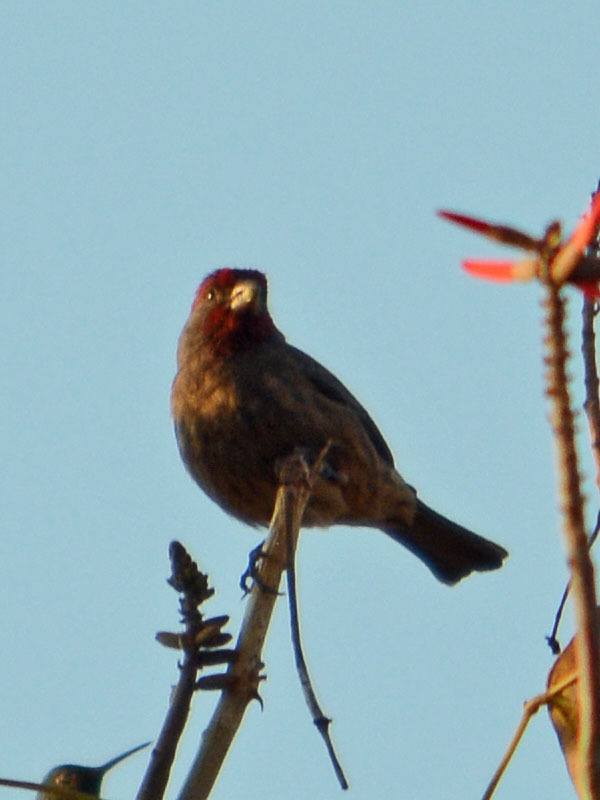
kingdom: Animalia
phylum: Chordata
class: Aves
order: Passeriformes
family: Fringillidae
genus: Haemorhous
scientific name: Haemorhous mexicanus
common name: House finch
